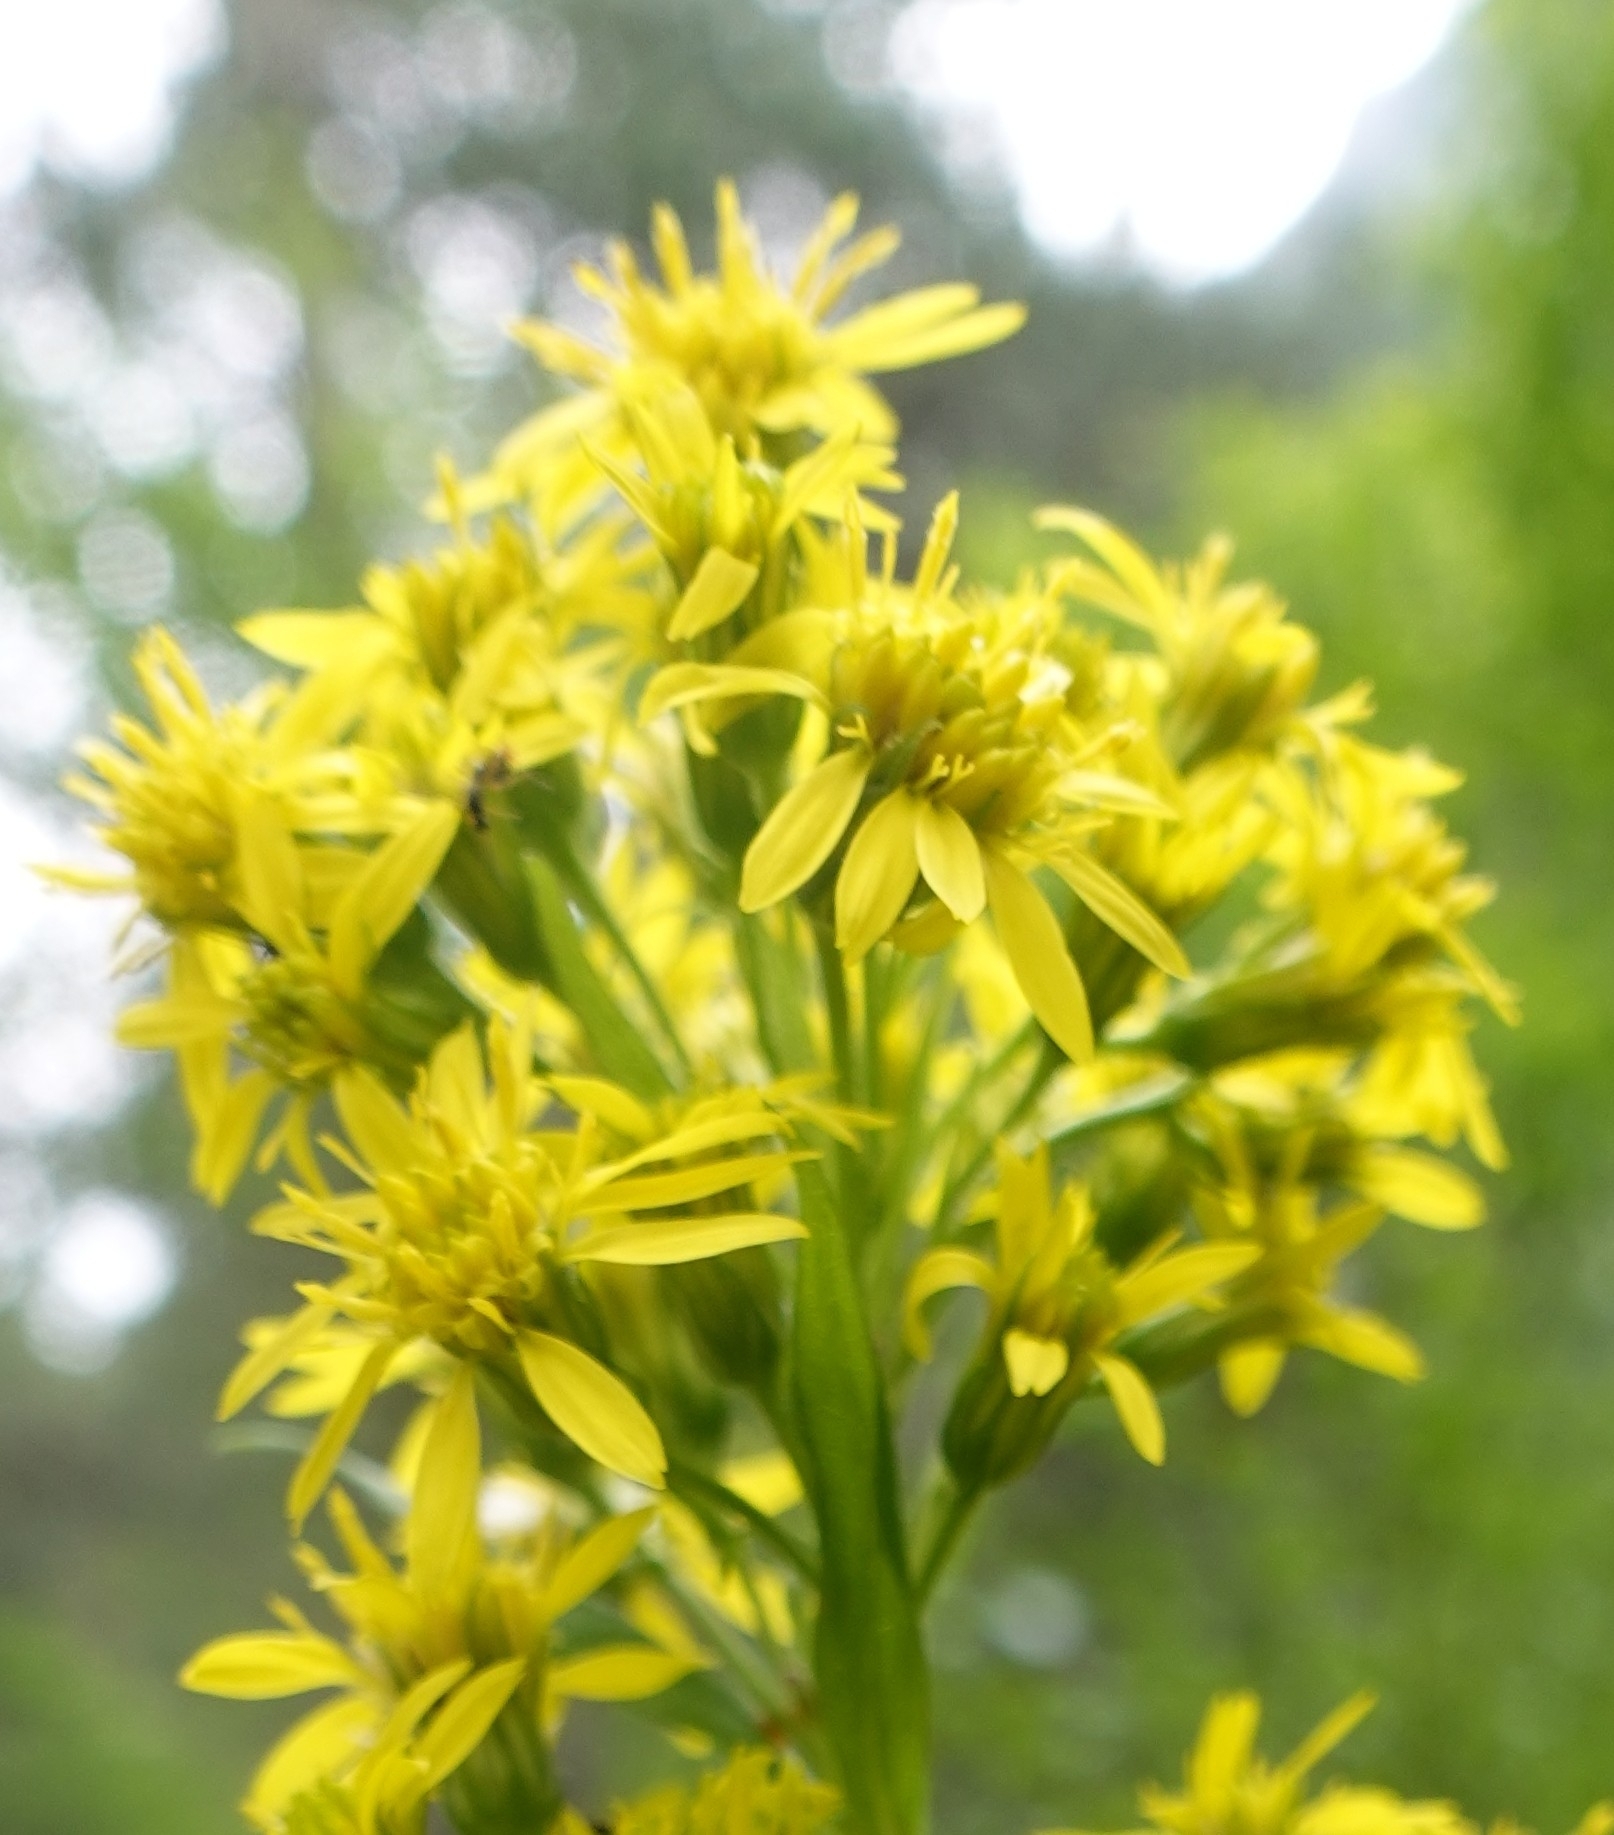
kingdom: Plantae
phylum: Tracheophyta
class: Magnoliopsida
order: Asterales
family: Asteraceae
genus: Solidago
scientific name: Solidago virgaurea
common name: Goldenrod
